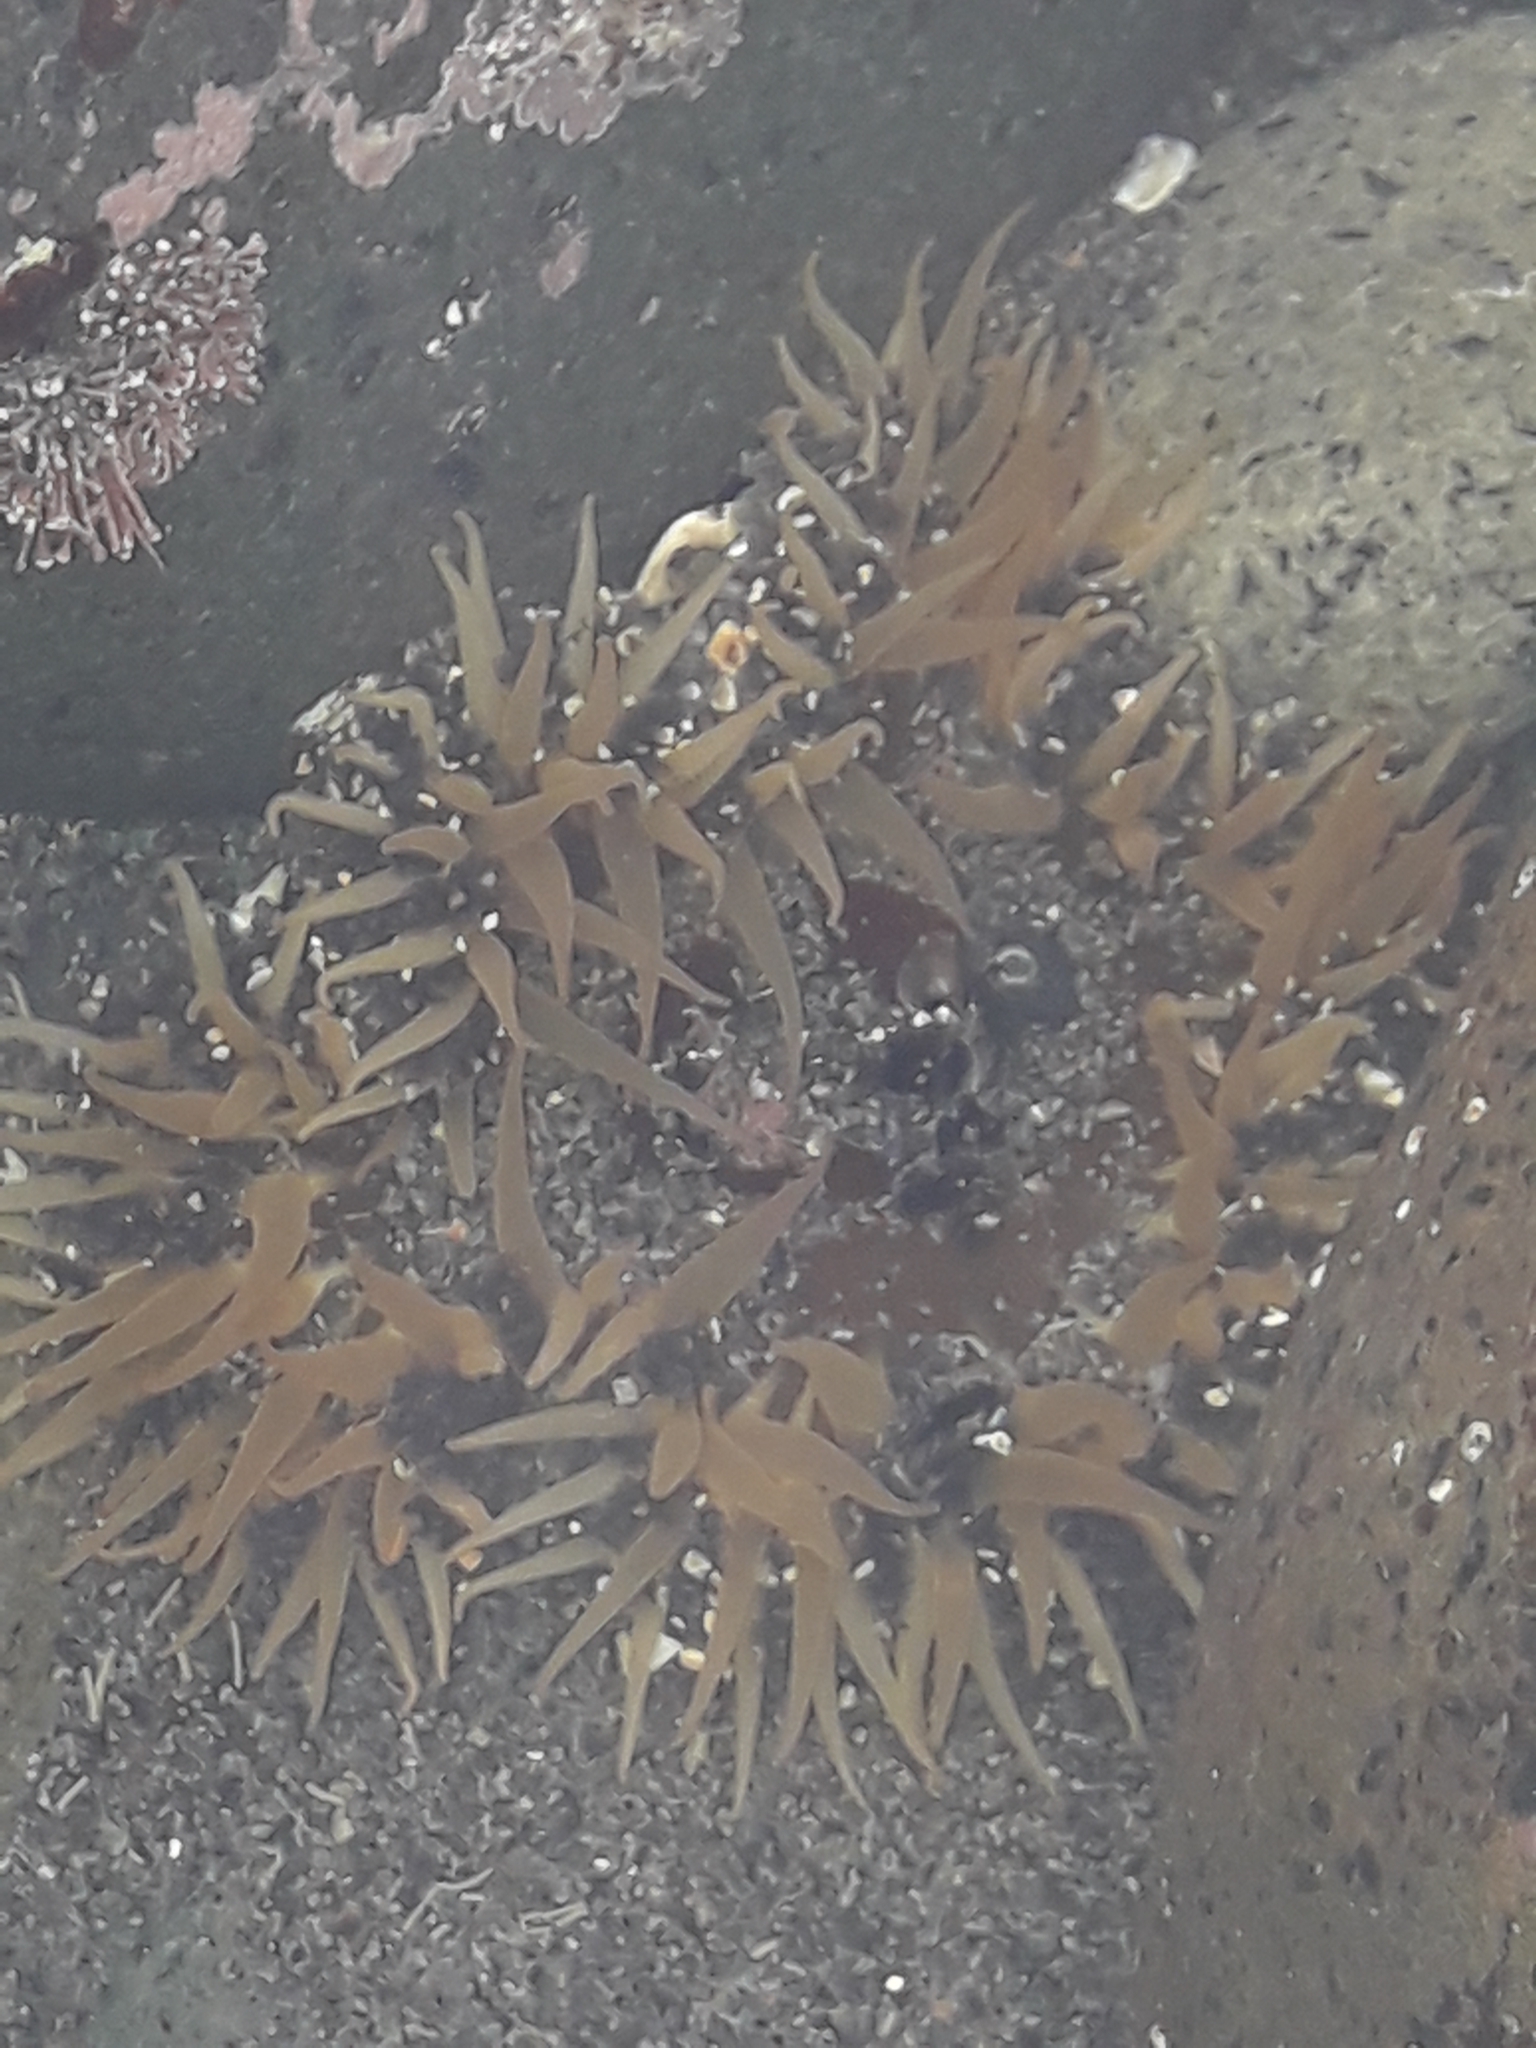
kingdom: Animalia
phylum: Cnidaria
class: Anthozoa
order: Actiniaria
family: Actiniidae
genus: Oulactis
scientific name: Oulactis magna
